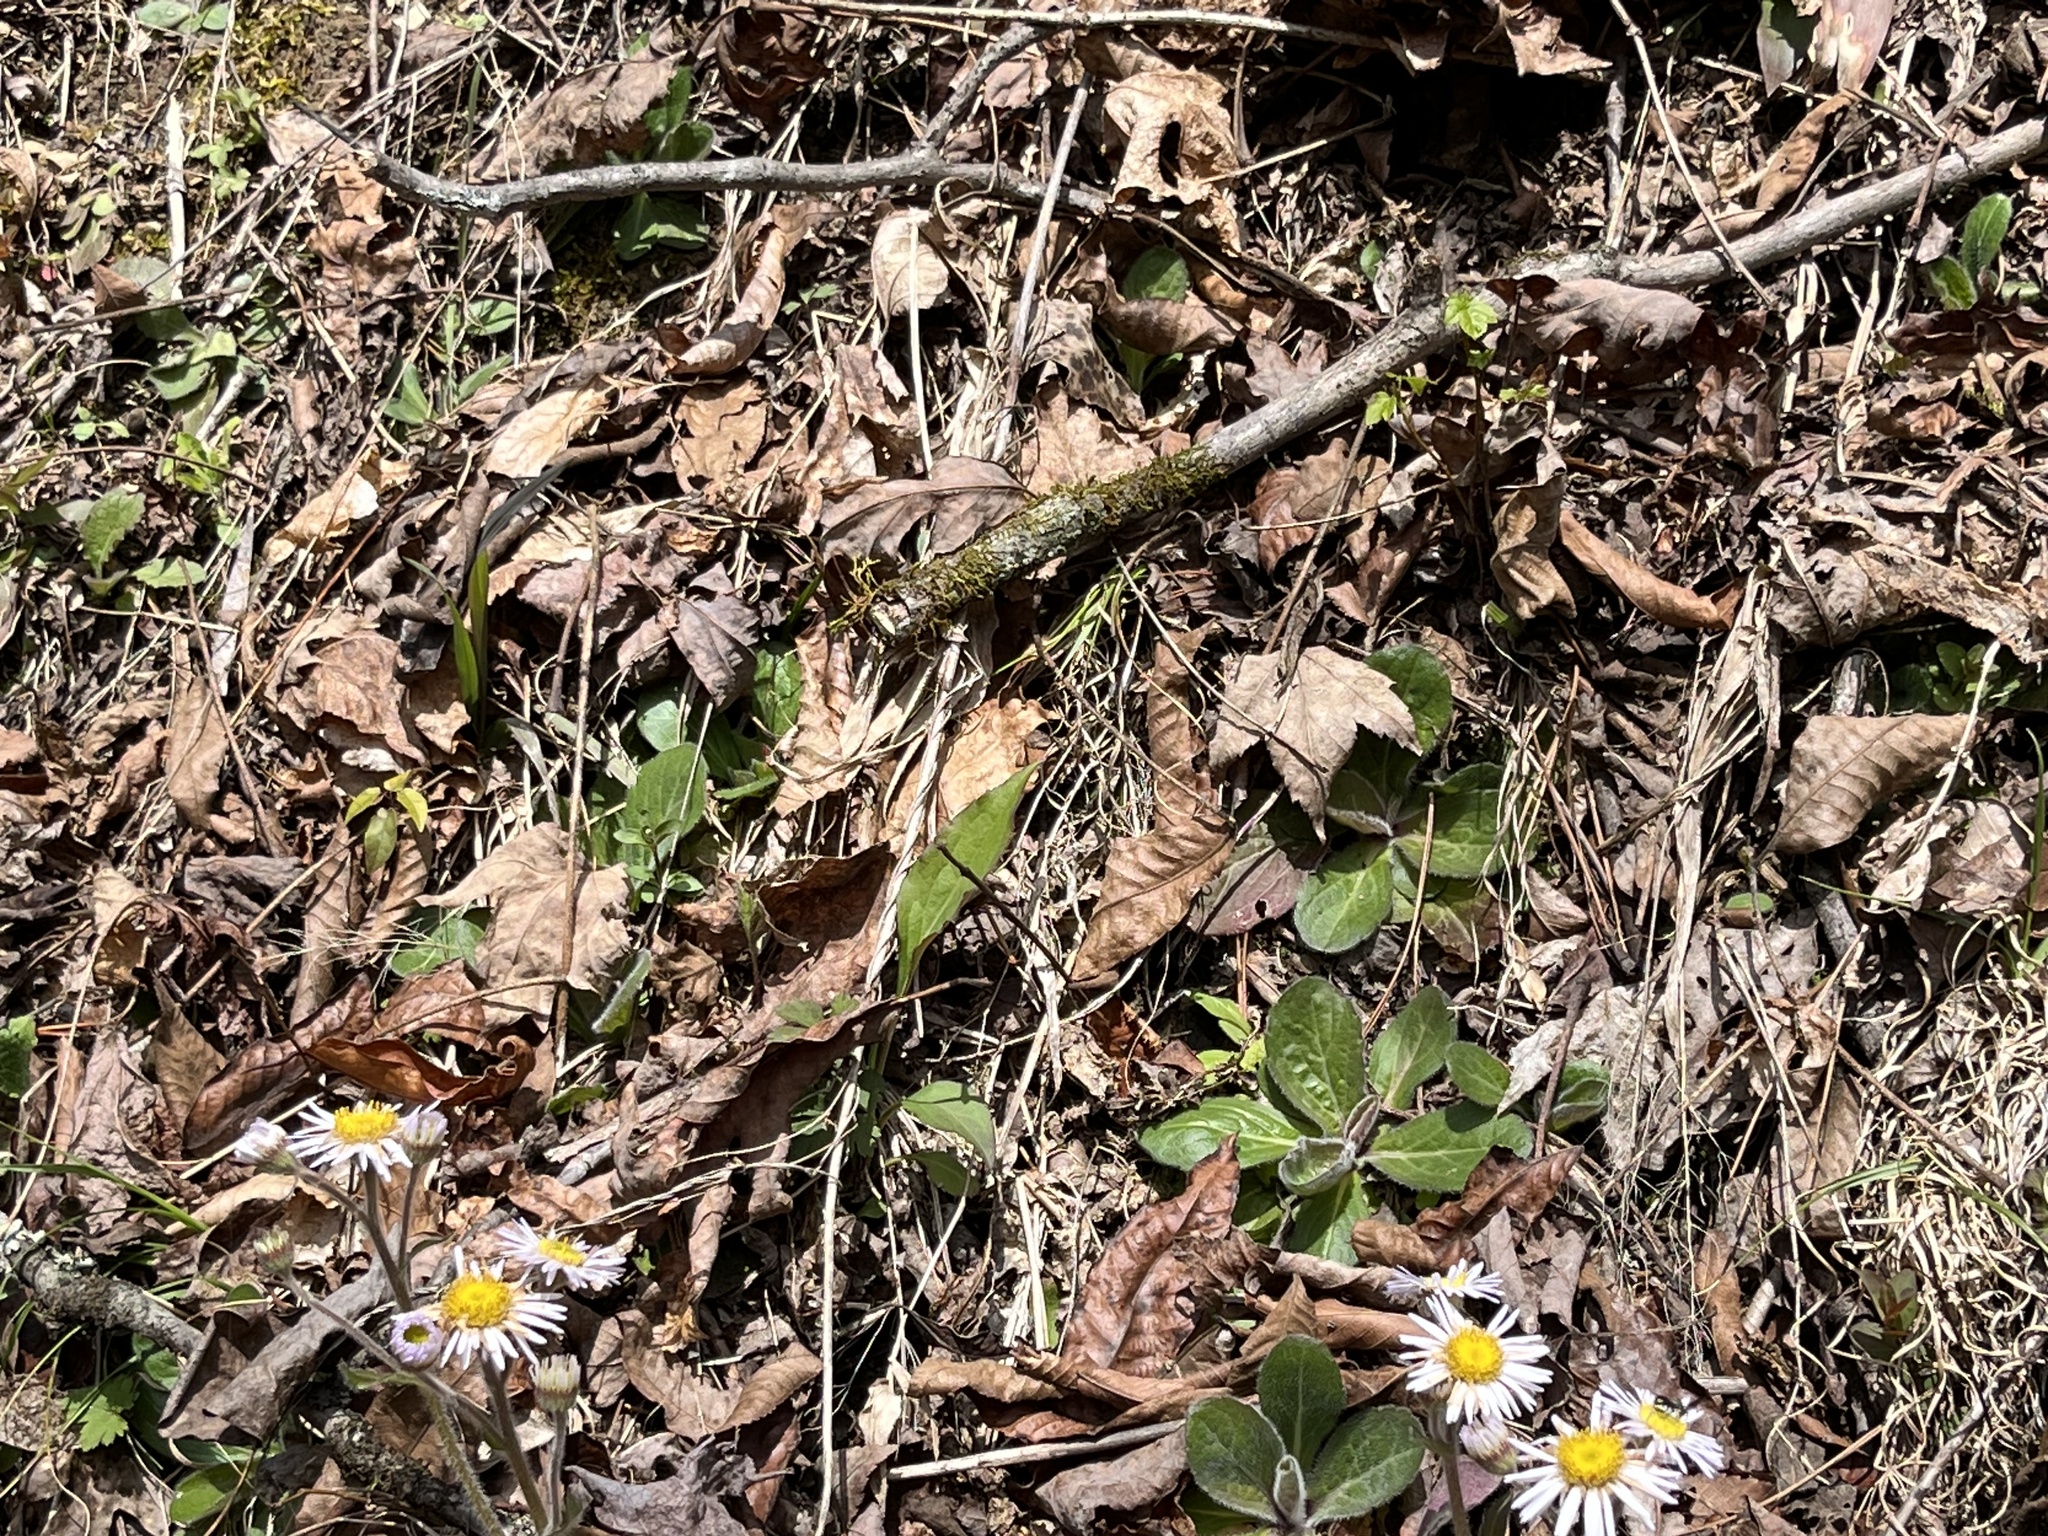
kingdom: Plantae
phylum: Tracheophyta
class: Magnoliopsida
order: Asterales
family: Asteraceae
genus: Erigeron
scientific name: Erigeron pulchellus
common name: Hairy fleabane
